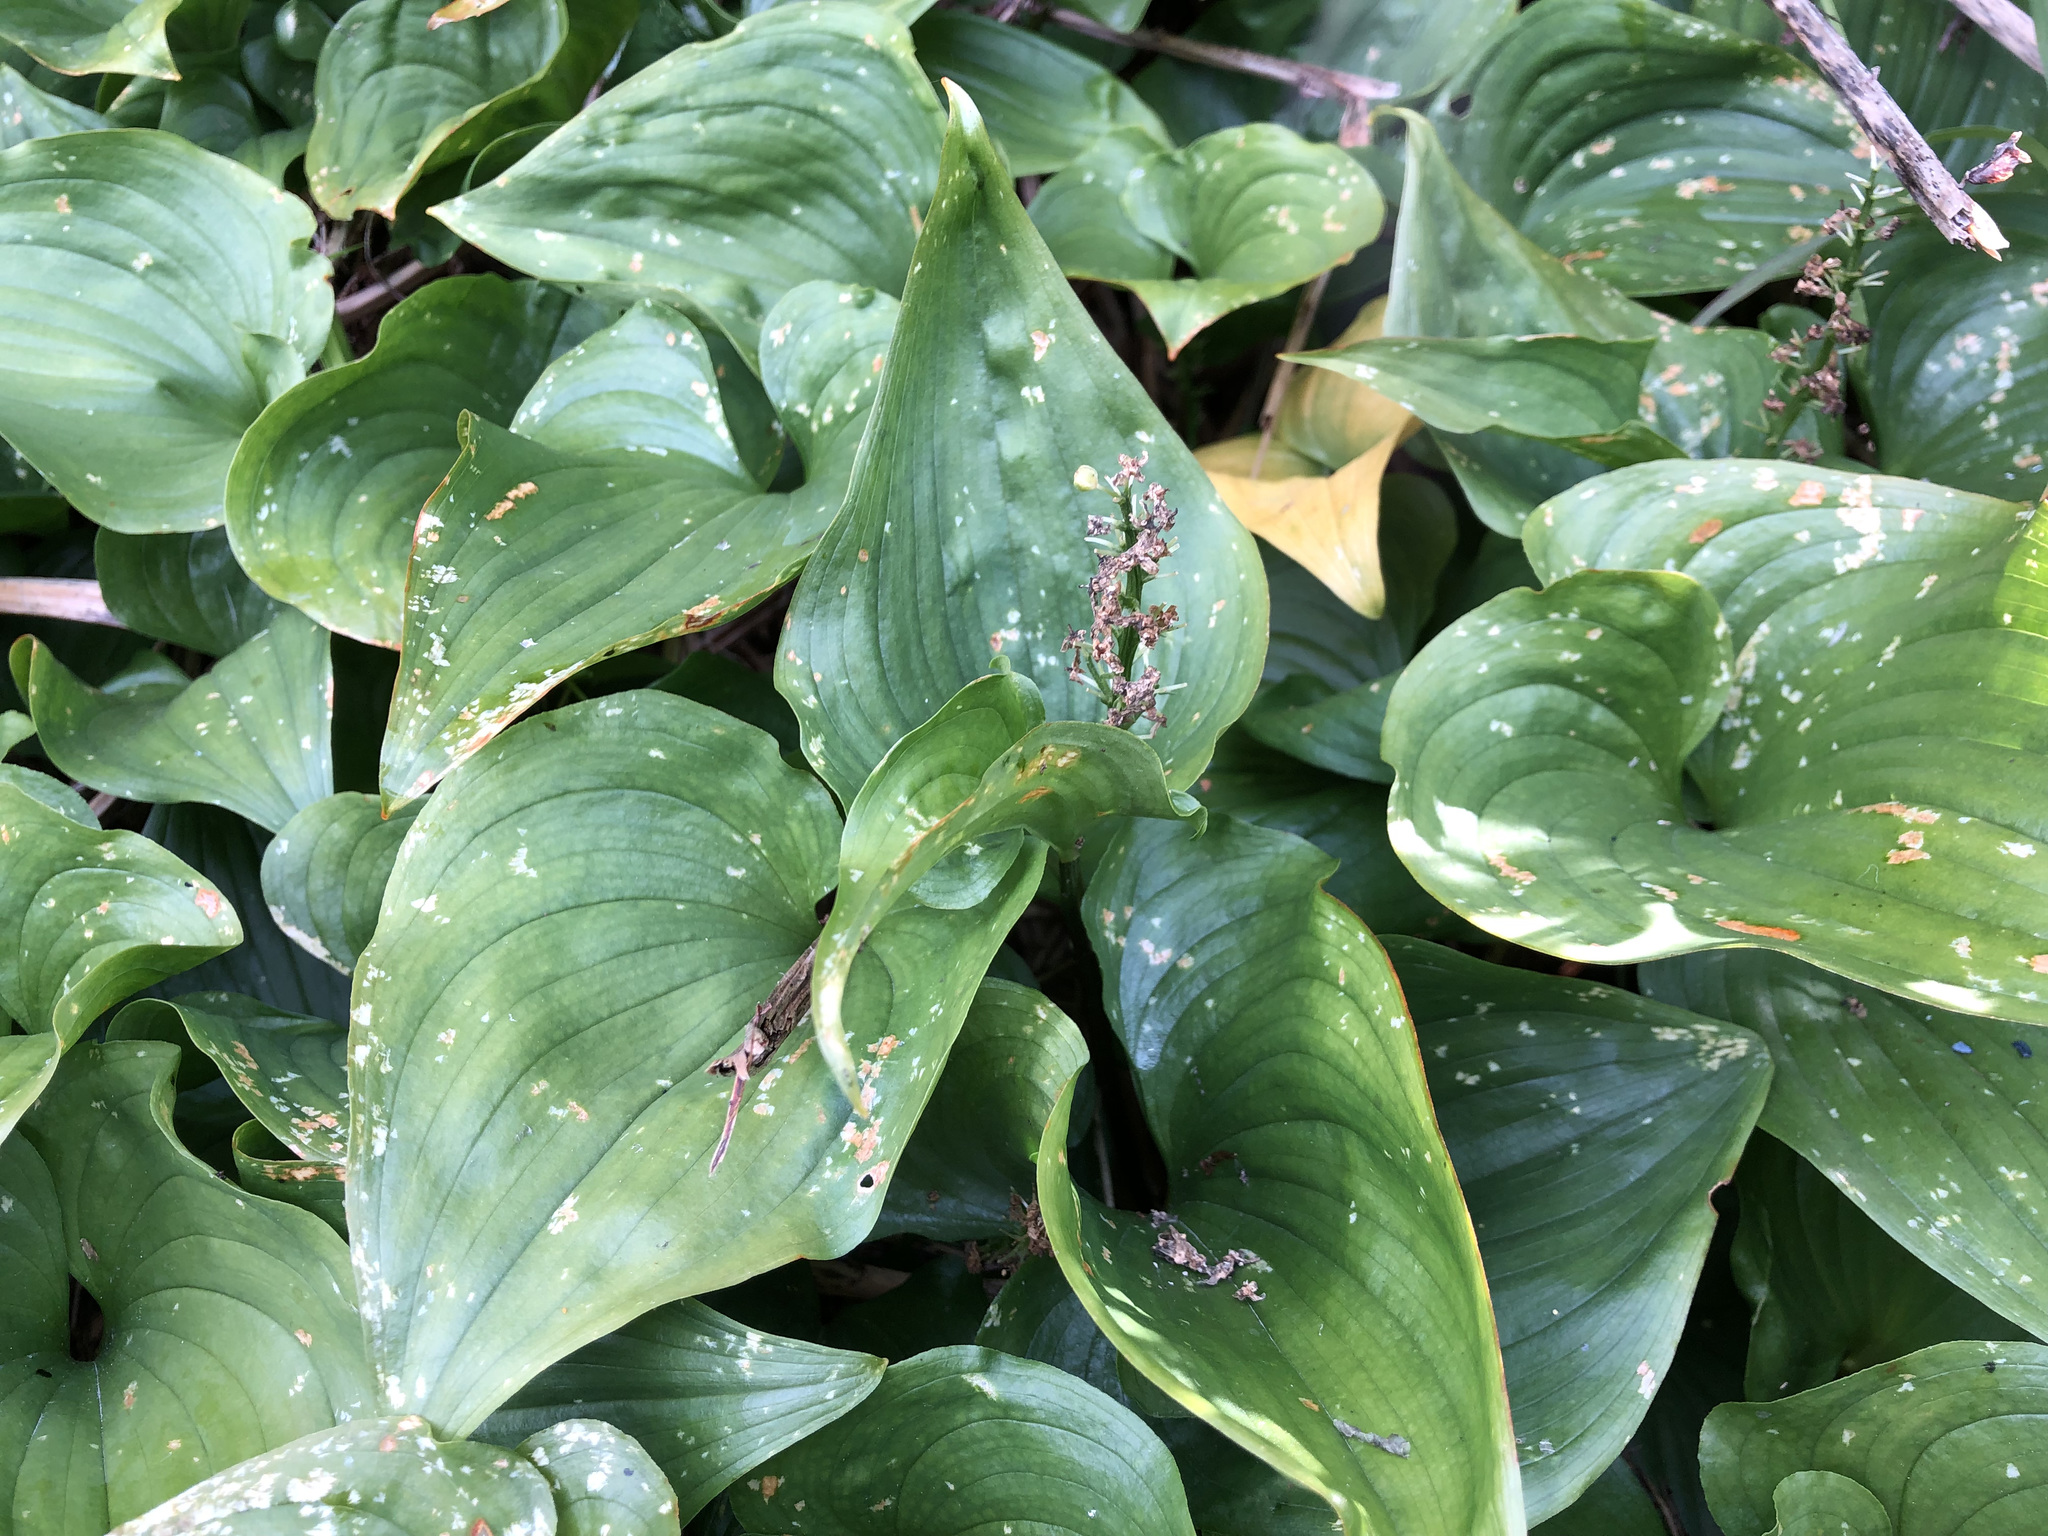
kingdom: Plantae
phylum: Tracheophyta
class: Liliopsida
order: Asparagales
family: Asparagaceae
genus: Maianthemum
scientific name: Maianthemum dilatatum
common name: False lily-of-the-valley
